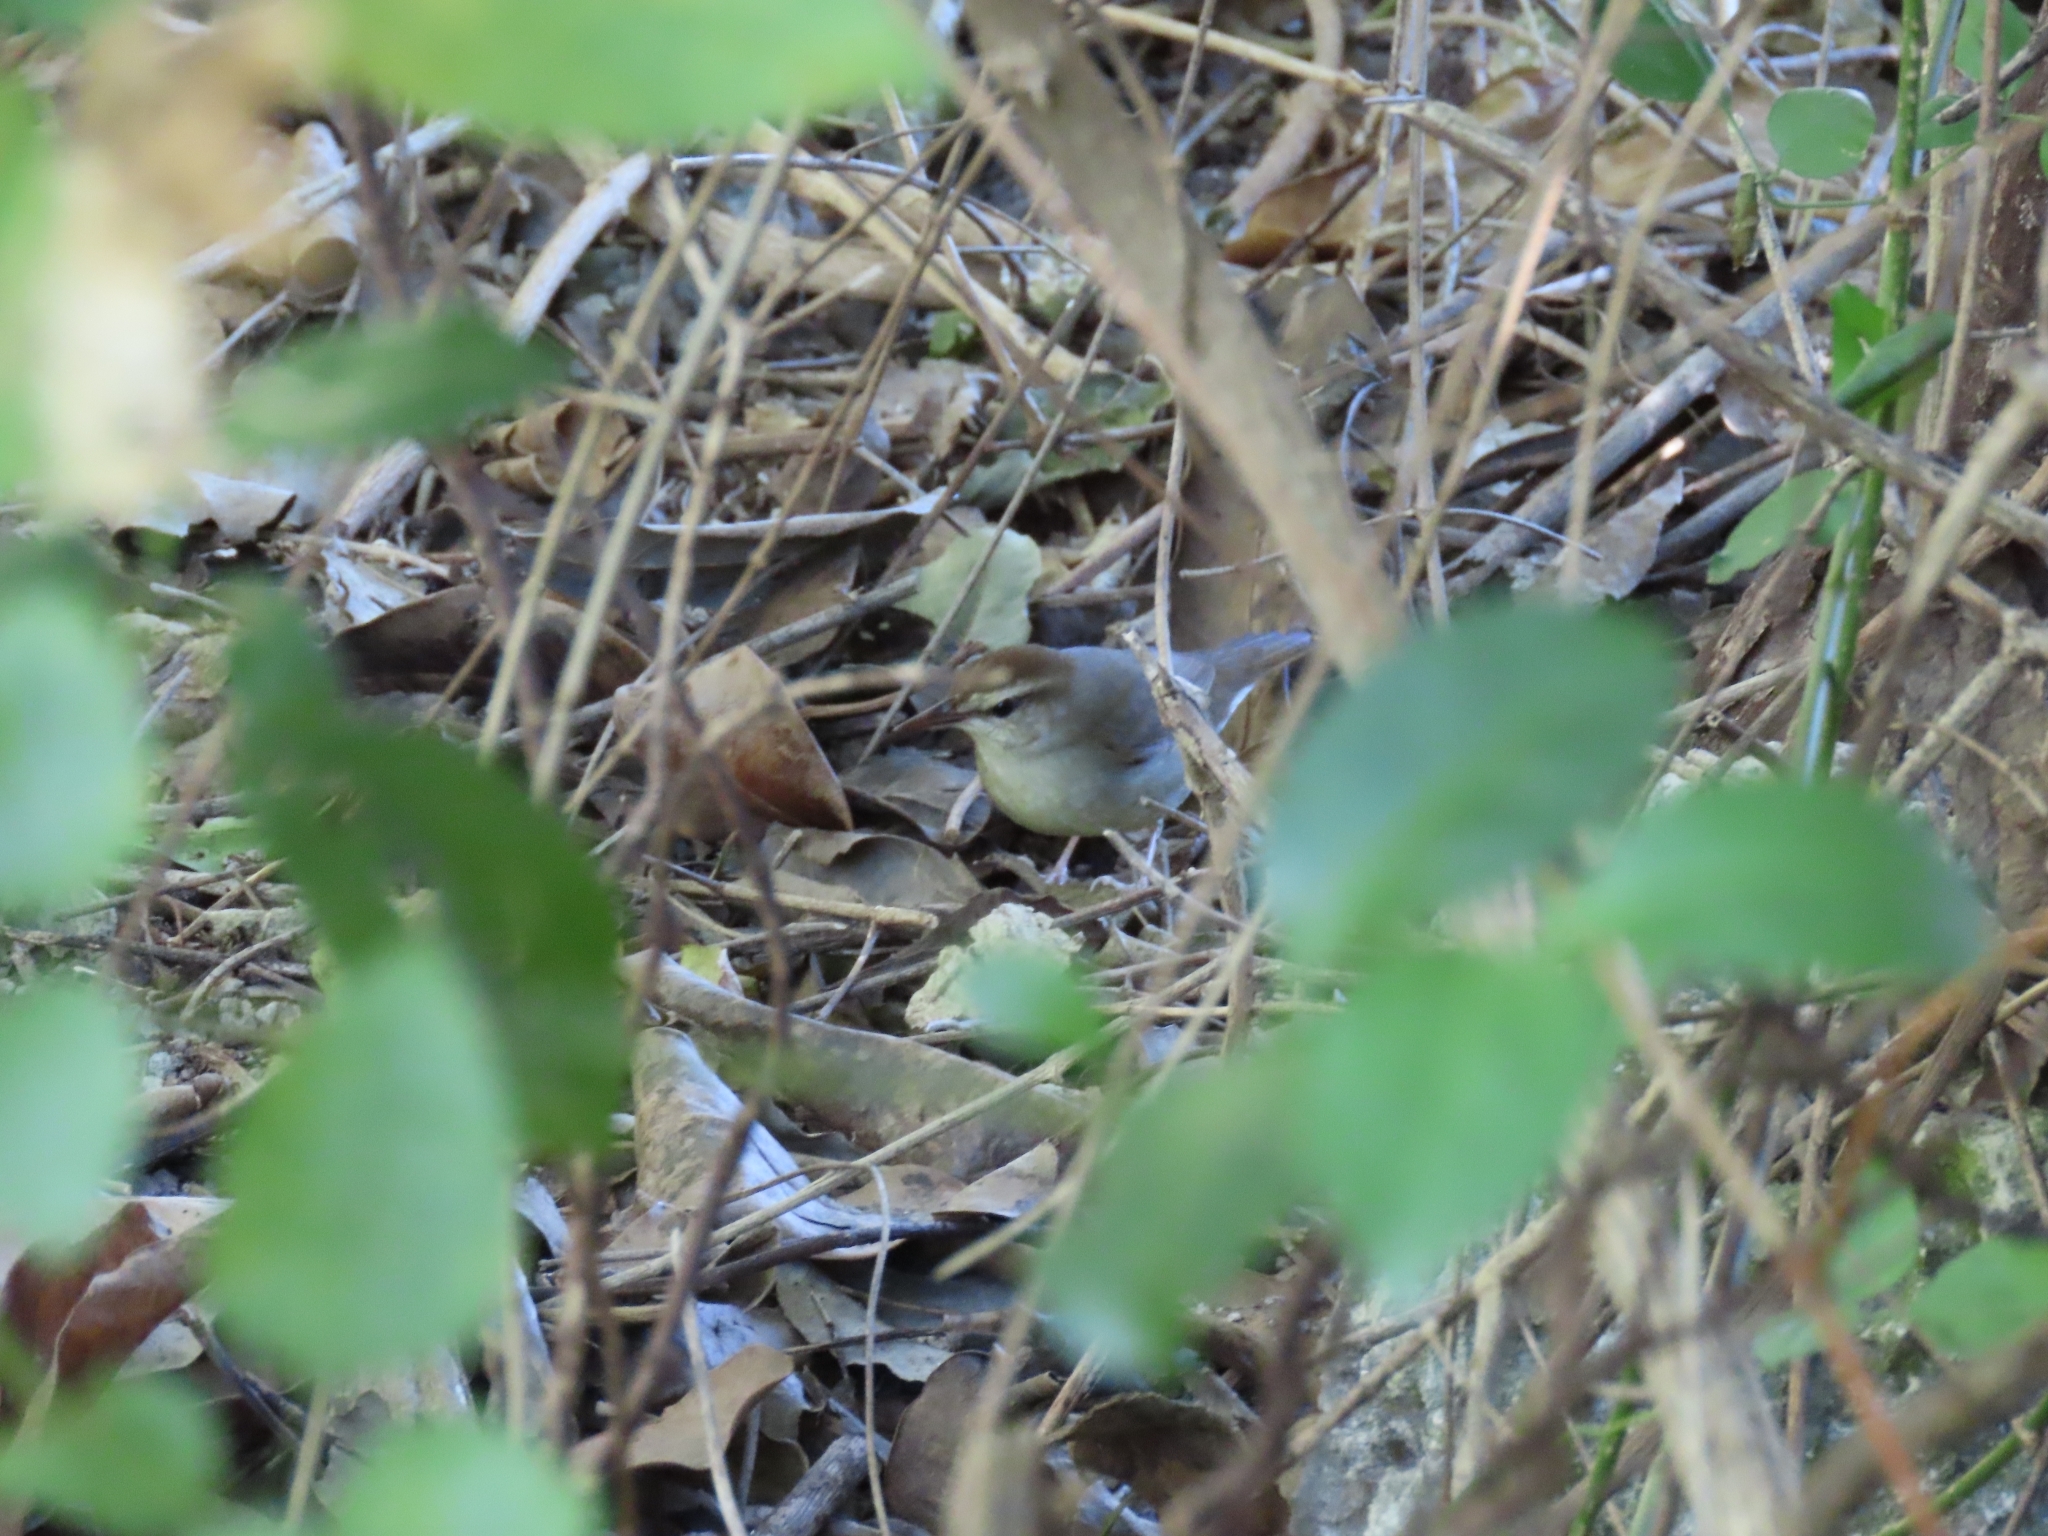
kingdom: Animalia
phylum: Chordata
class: Aves
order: Passeriformes
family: Parulidae
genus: Limnothlypis
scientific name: Limnothlypis swainsonii
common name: Swainson's warbler
